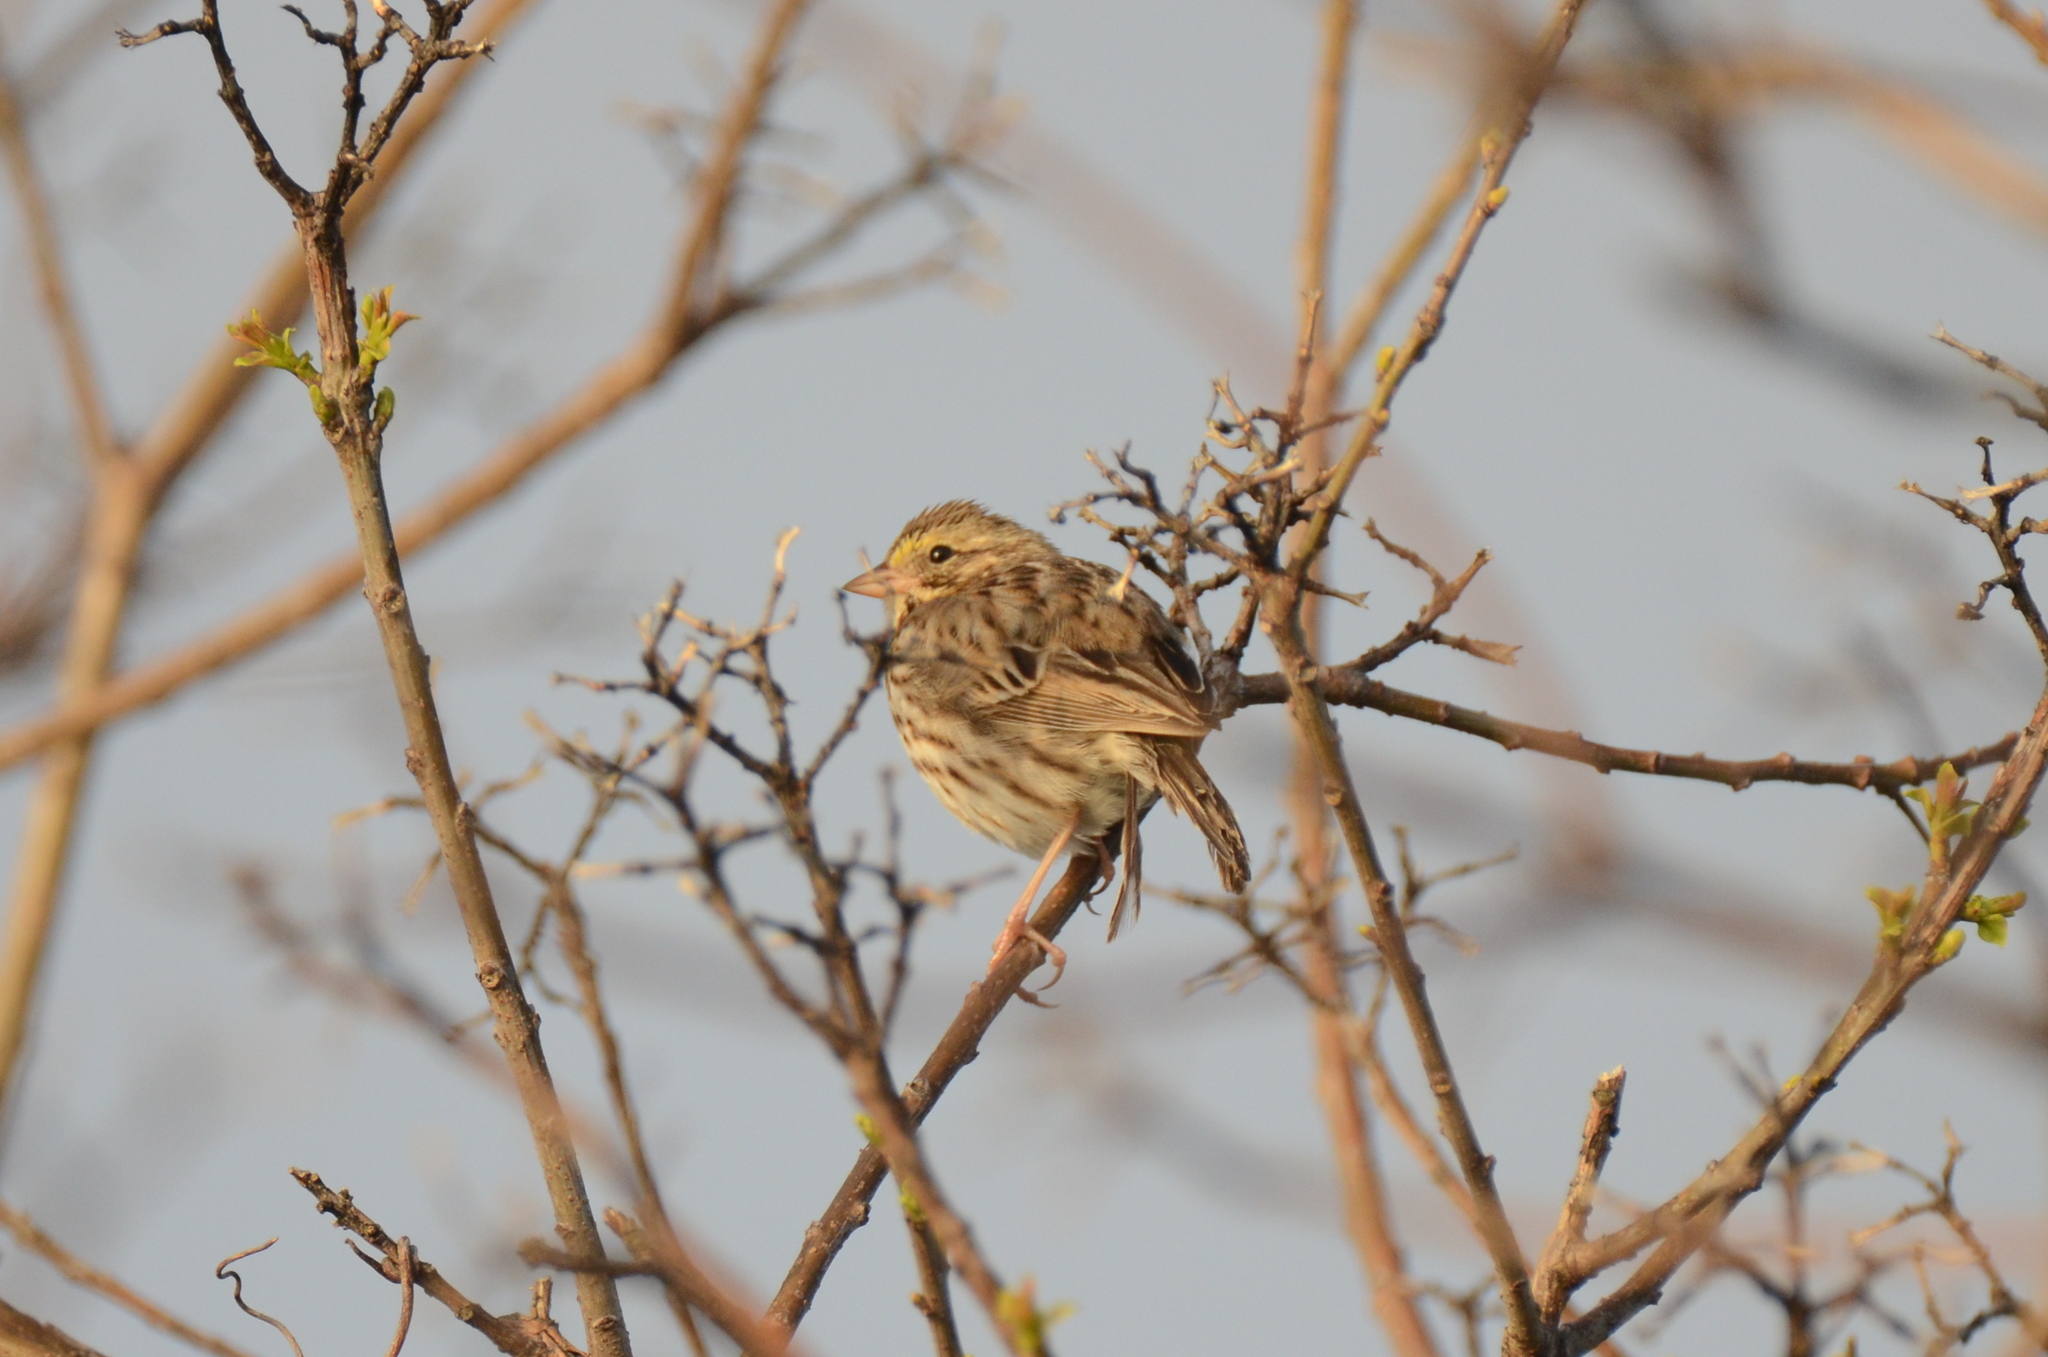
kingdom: Animalia
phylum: Chordata
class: Aves
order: Passeriformes
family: Passerellidae
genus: Passerculus
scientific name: Passerculus sandwichensis
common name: Savannah sparrow
